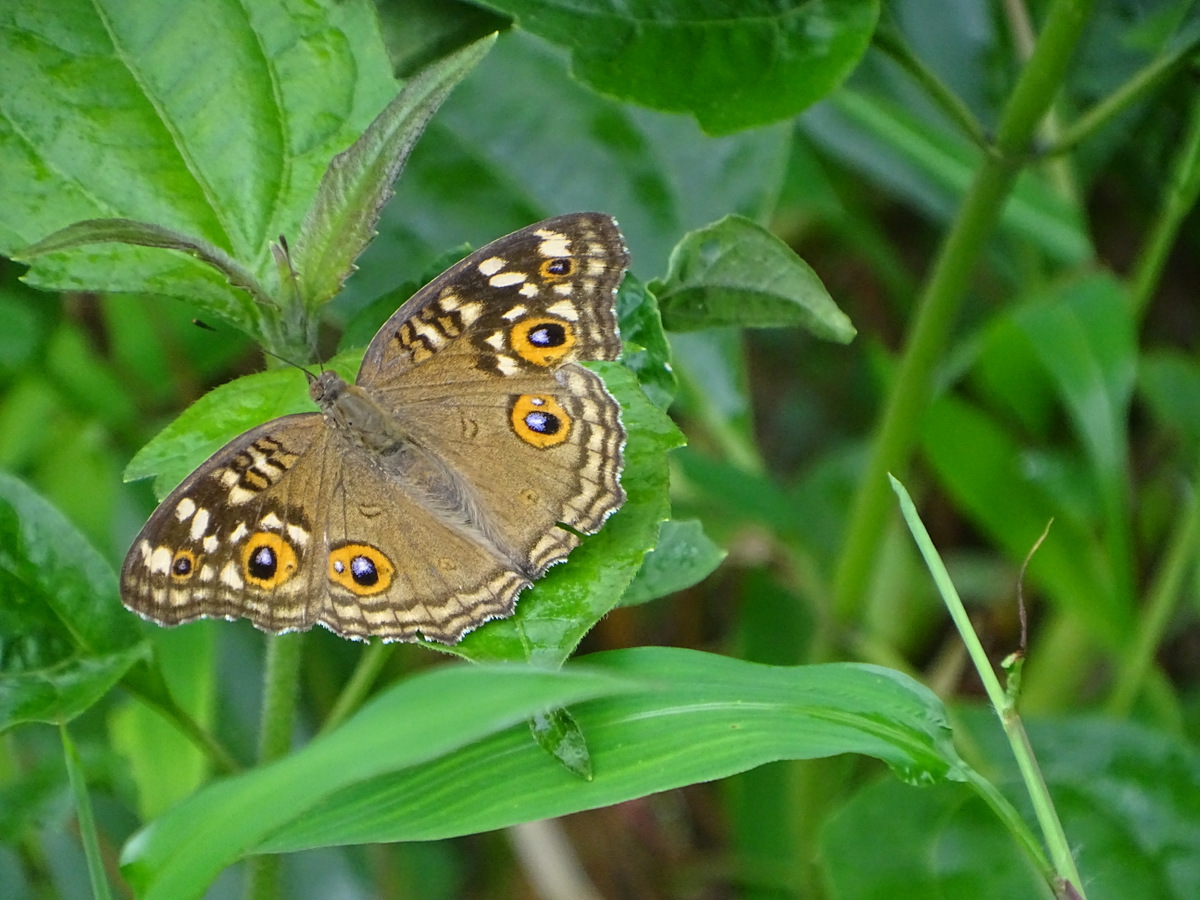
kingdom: Animalia
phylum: Arthropoda
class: Insecta
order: Lepidoptera
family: Nymphalidae
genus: Junonia
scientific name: Junonia lemonias
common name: Lemon pansy
